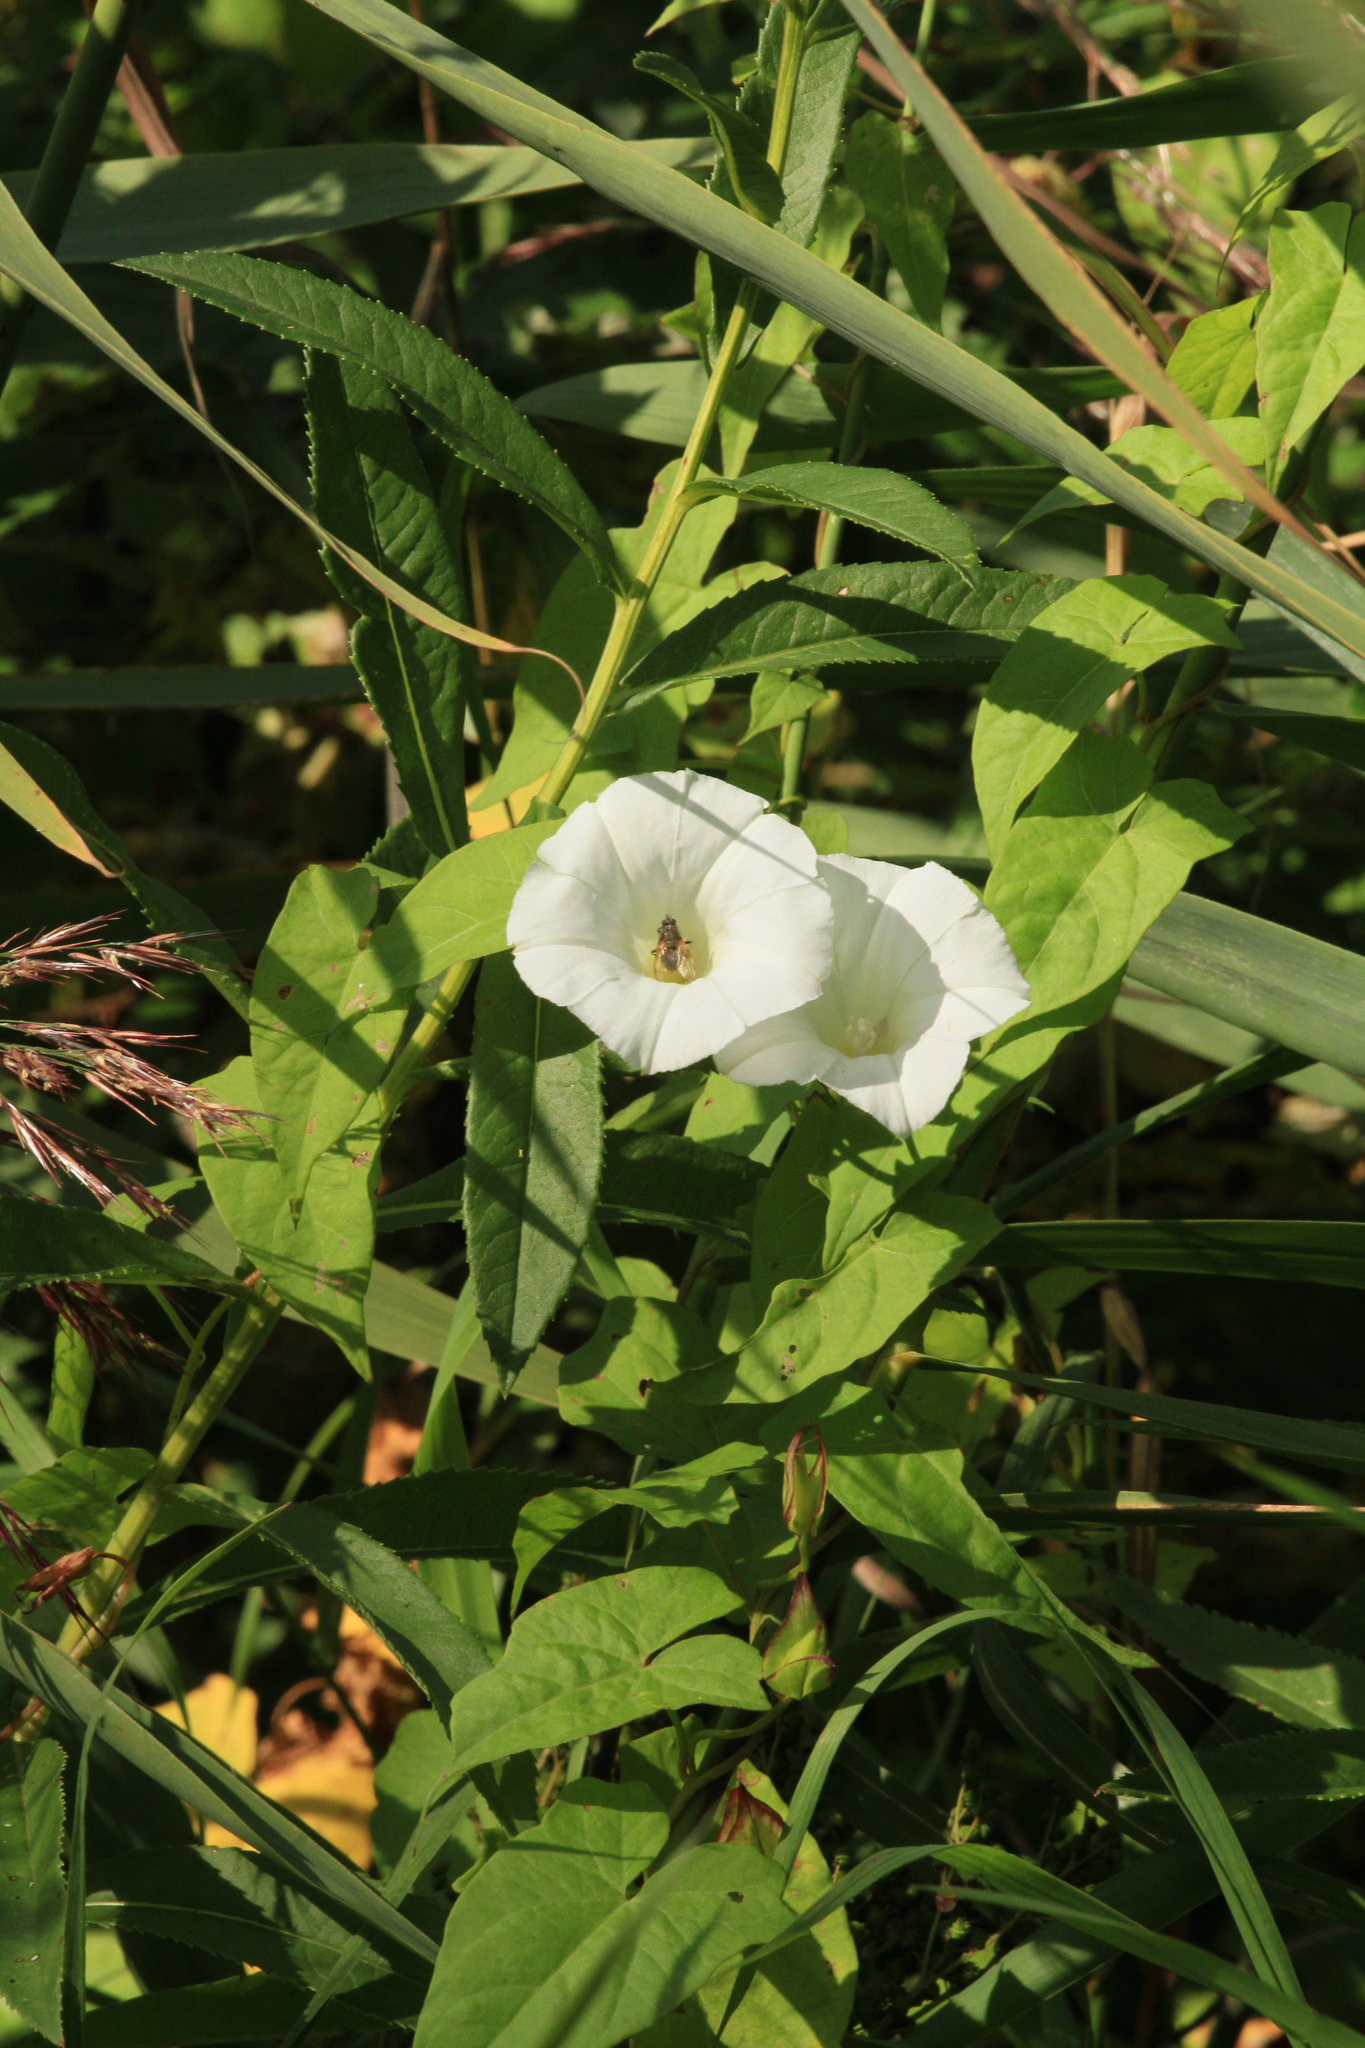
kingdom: Plantae
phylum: Tracheophyta
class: Magnoliopsida
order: Solanales
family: Convolvulaceae
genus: Calystegia
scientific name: Calystegia sepium
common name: Hedge bindweed
